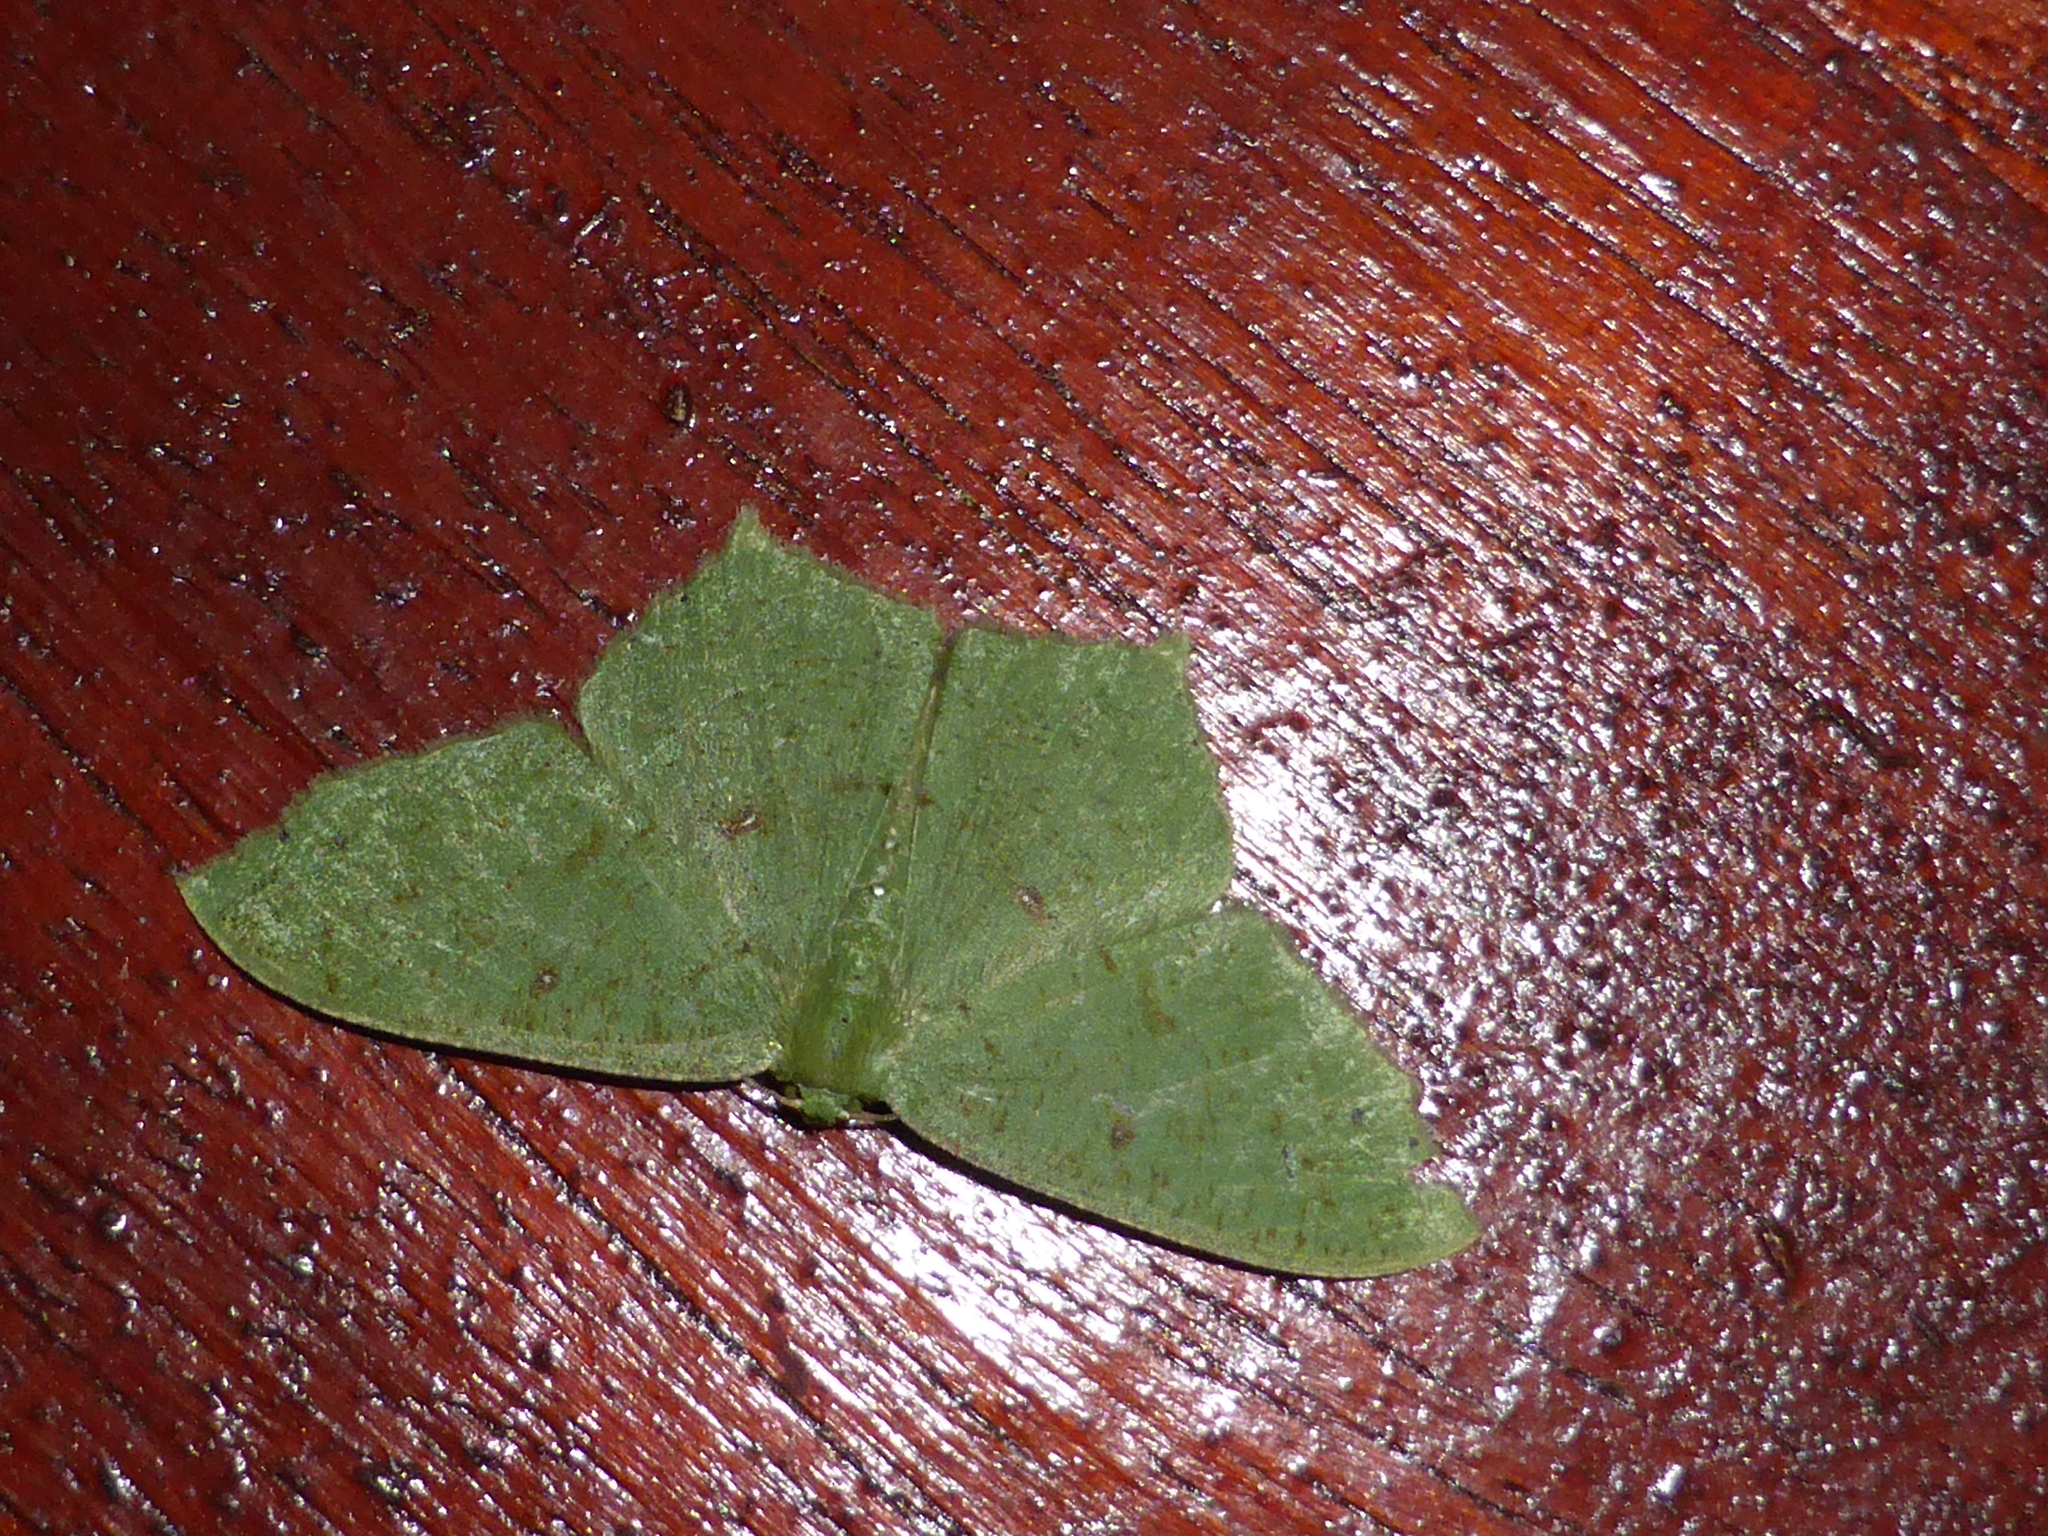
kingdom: Animalia
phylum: Arthropoda
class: Insecta
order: Lepidoptera
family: Geometridae
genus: Dooabia
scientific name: Dooabia plana
